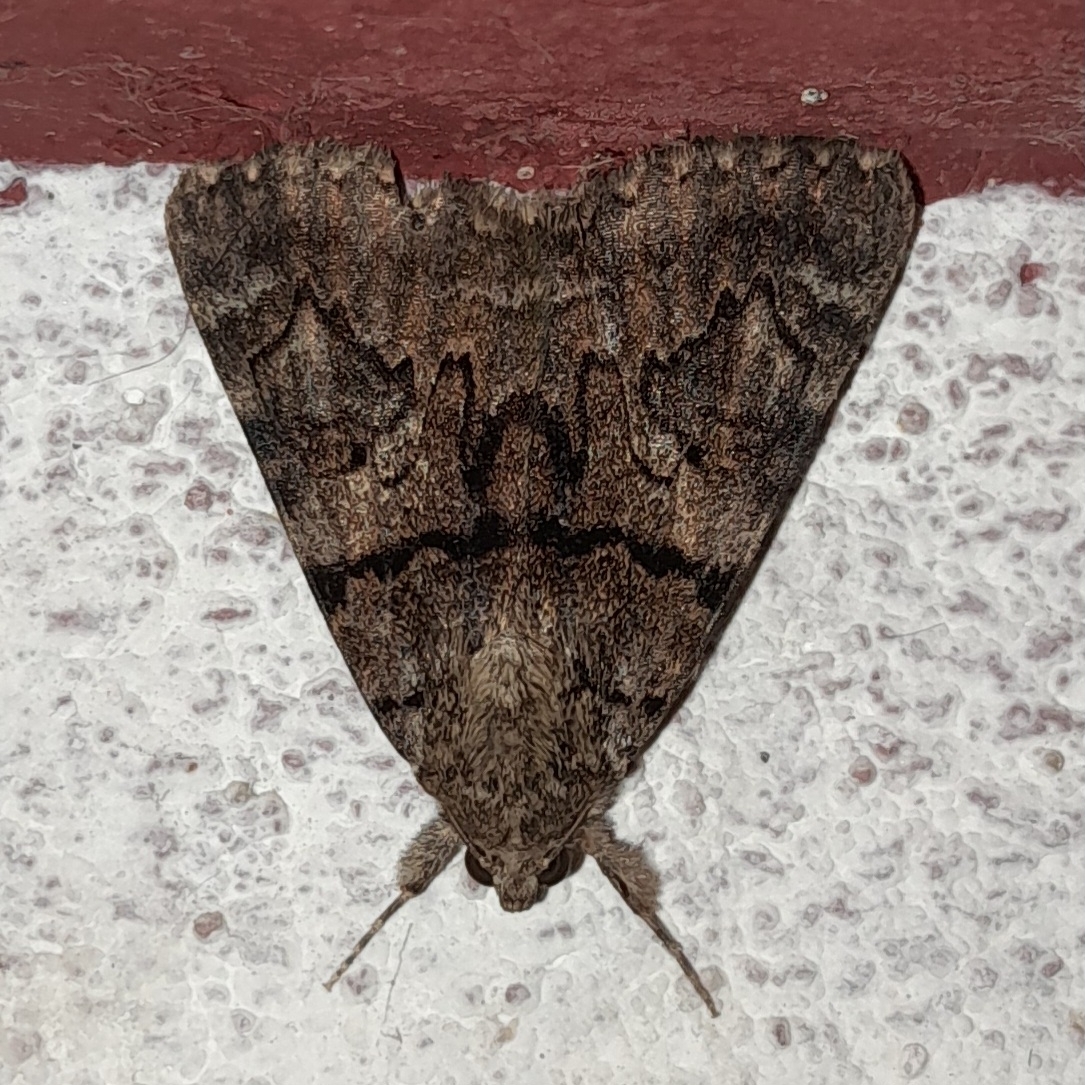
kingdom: Animalia
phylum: Arthropoda
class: Insecta
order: Lepidoptera
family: Erebidae
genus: Catocala
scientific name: Catocala nymphagoga
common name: Oak yellow underwing
